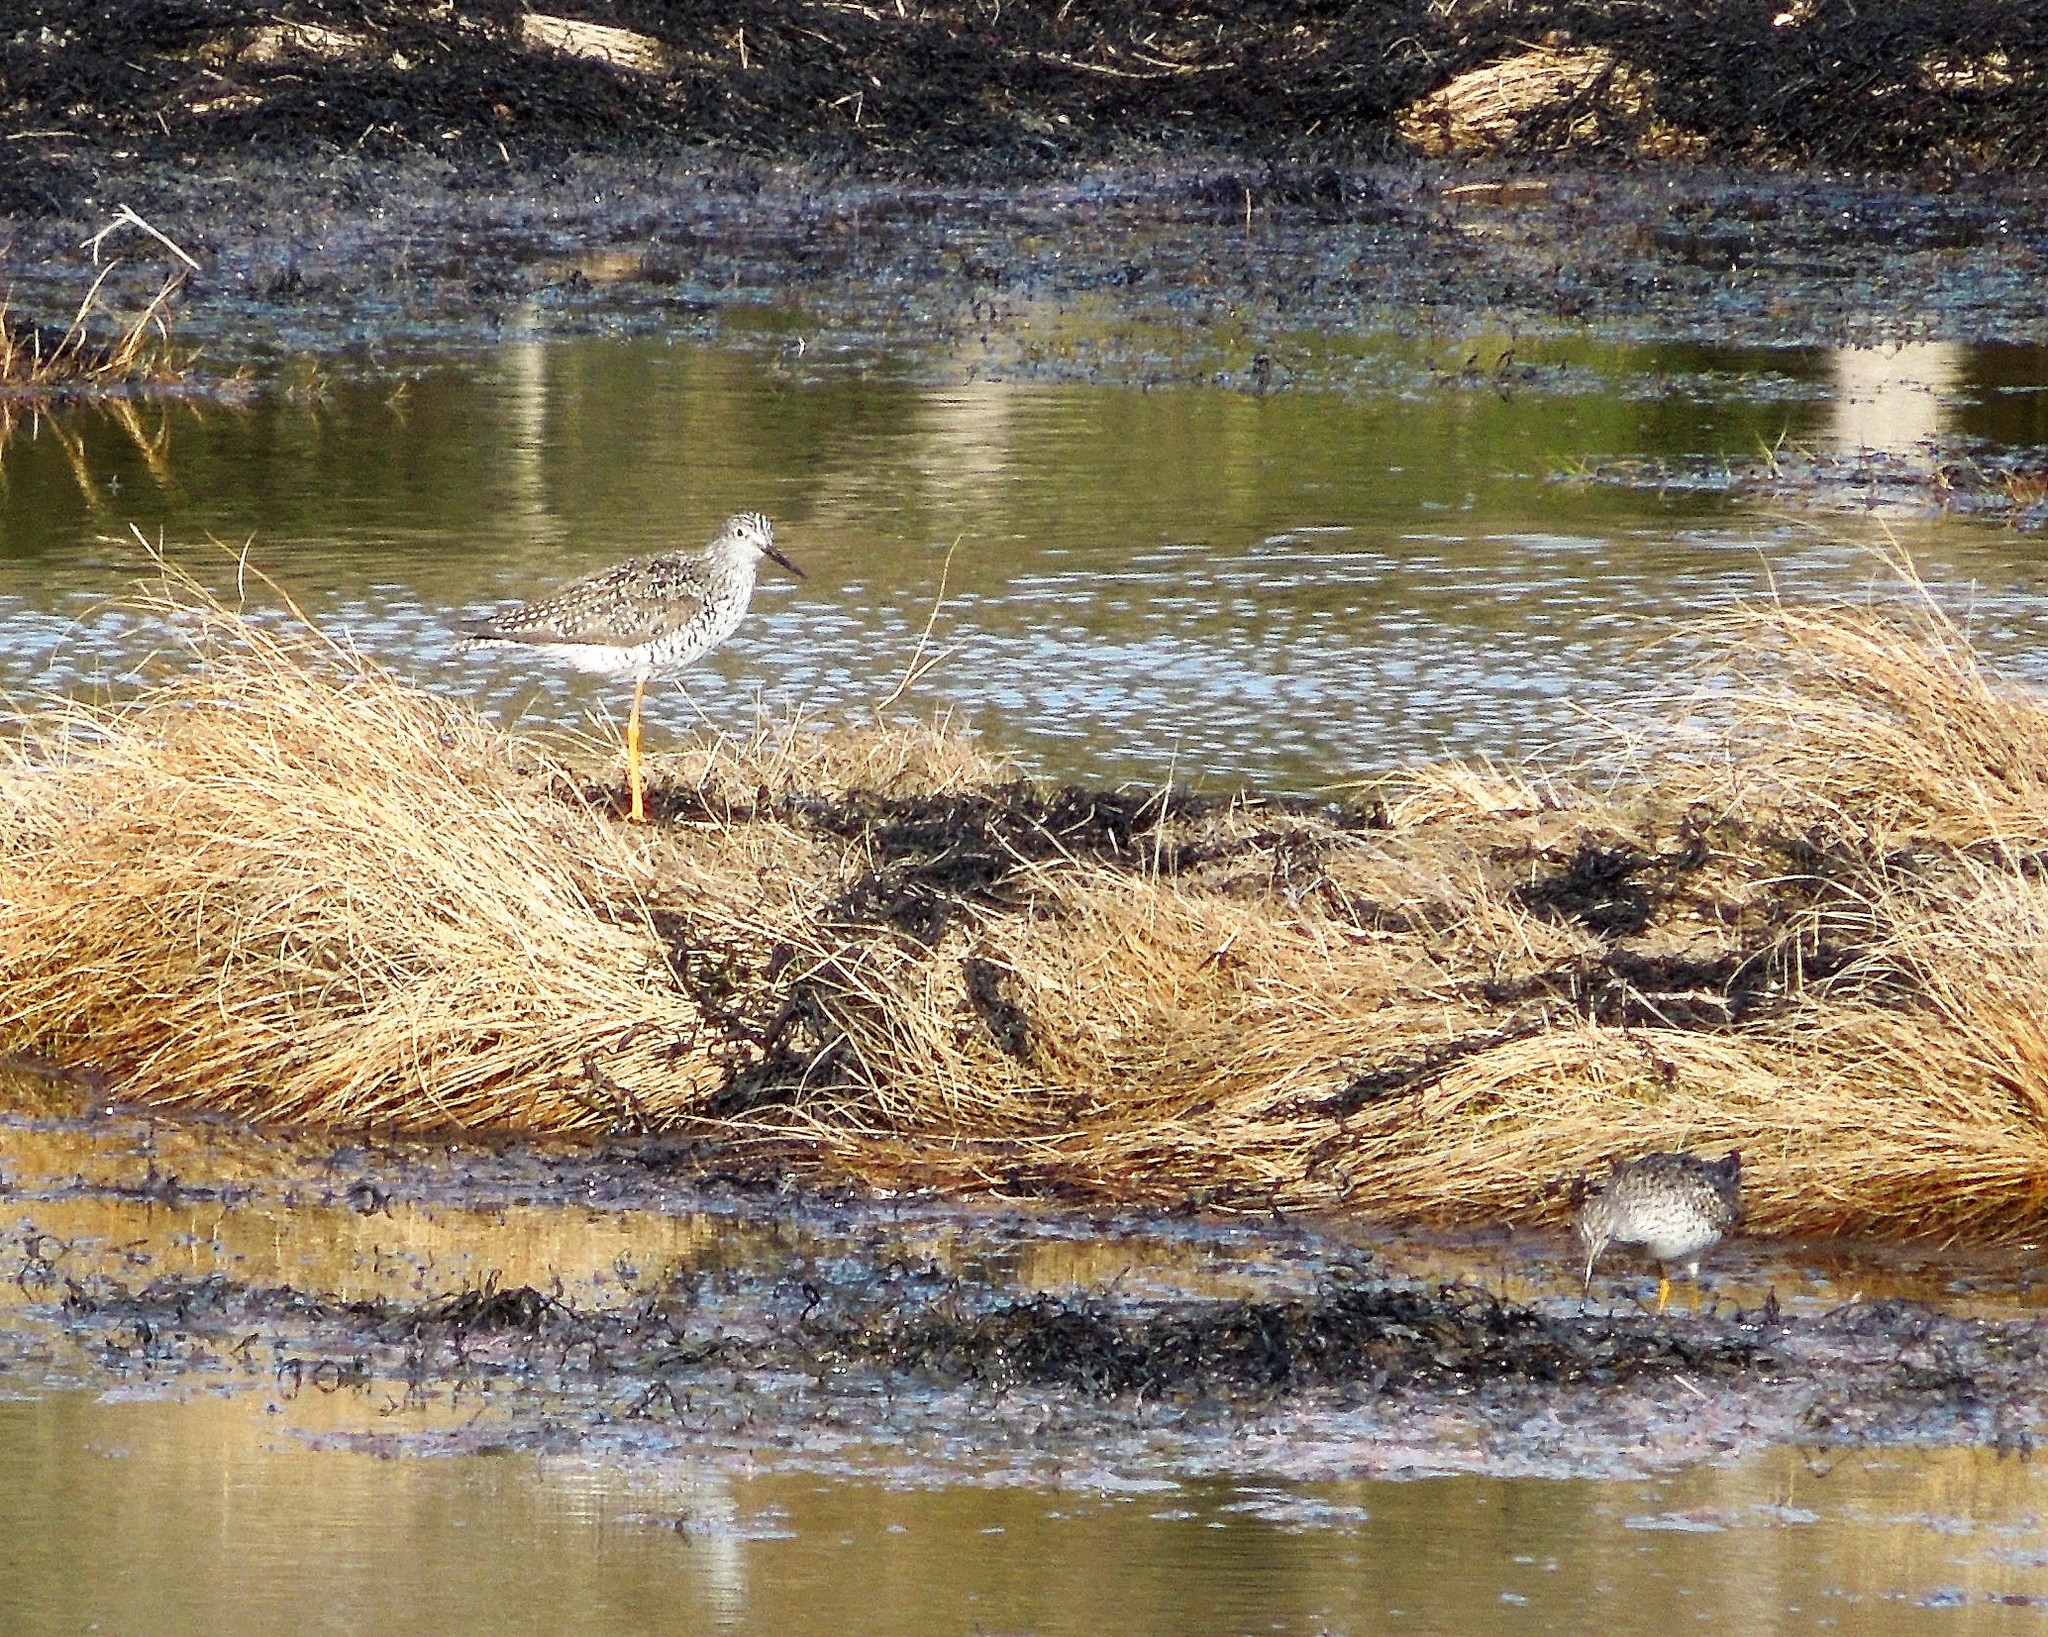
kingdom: Animalia
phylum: Chordata
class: Aves
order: Charadriiformes
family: Scolopacidae
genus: Tringa
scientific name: Tringa
